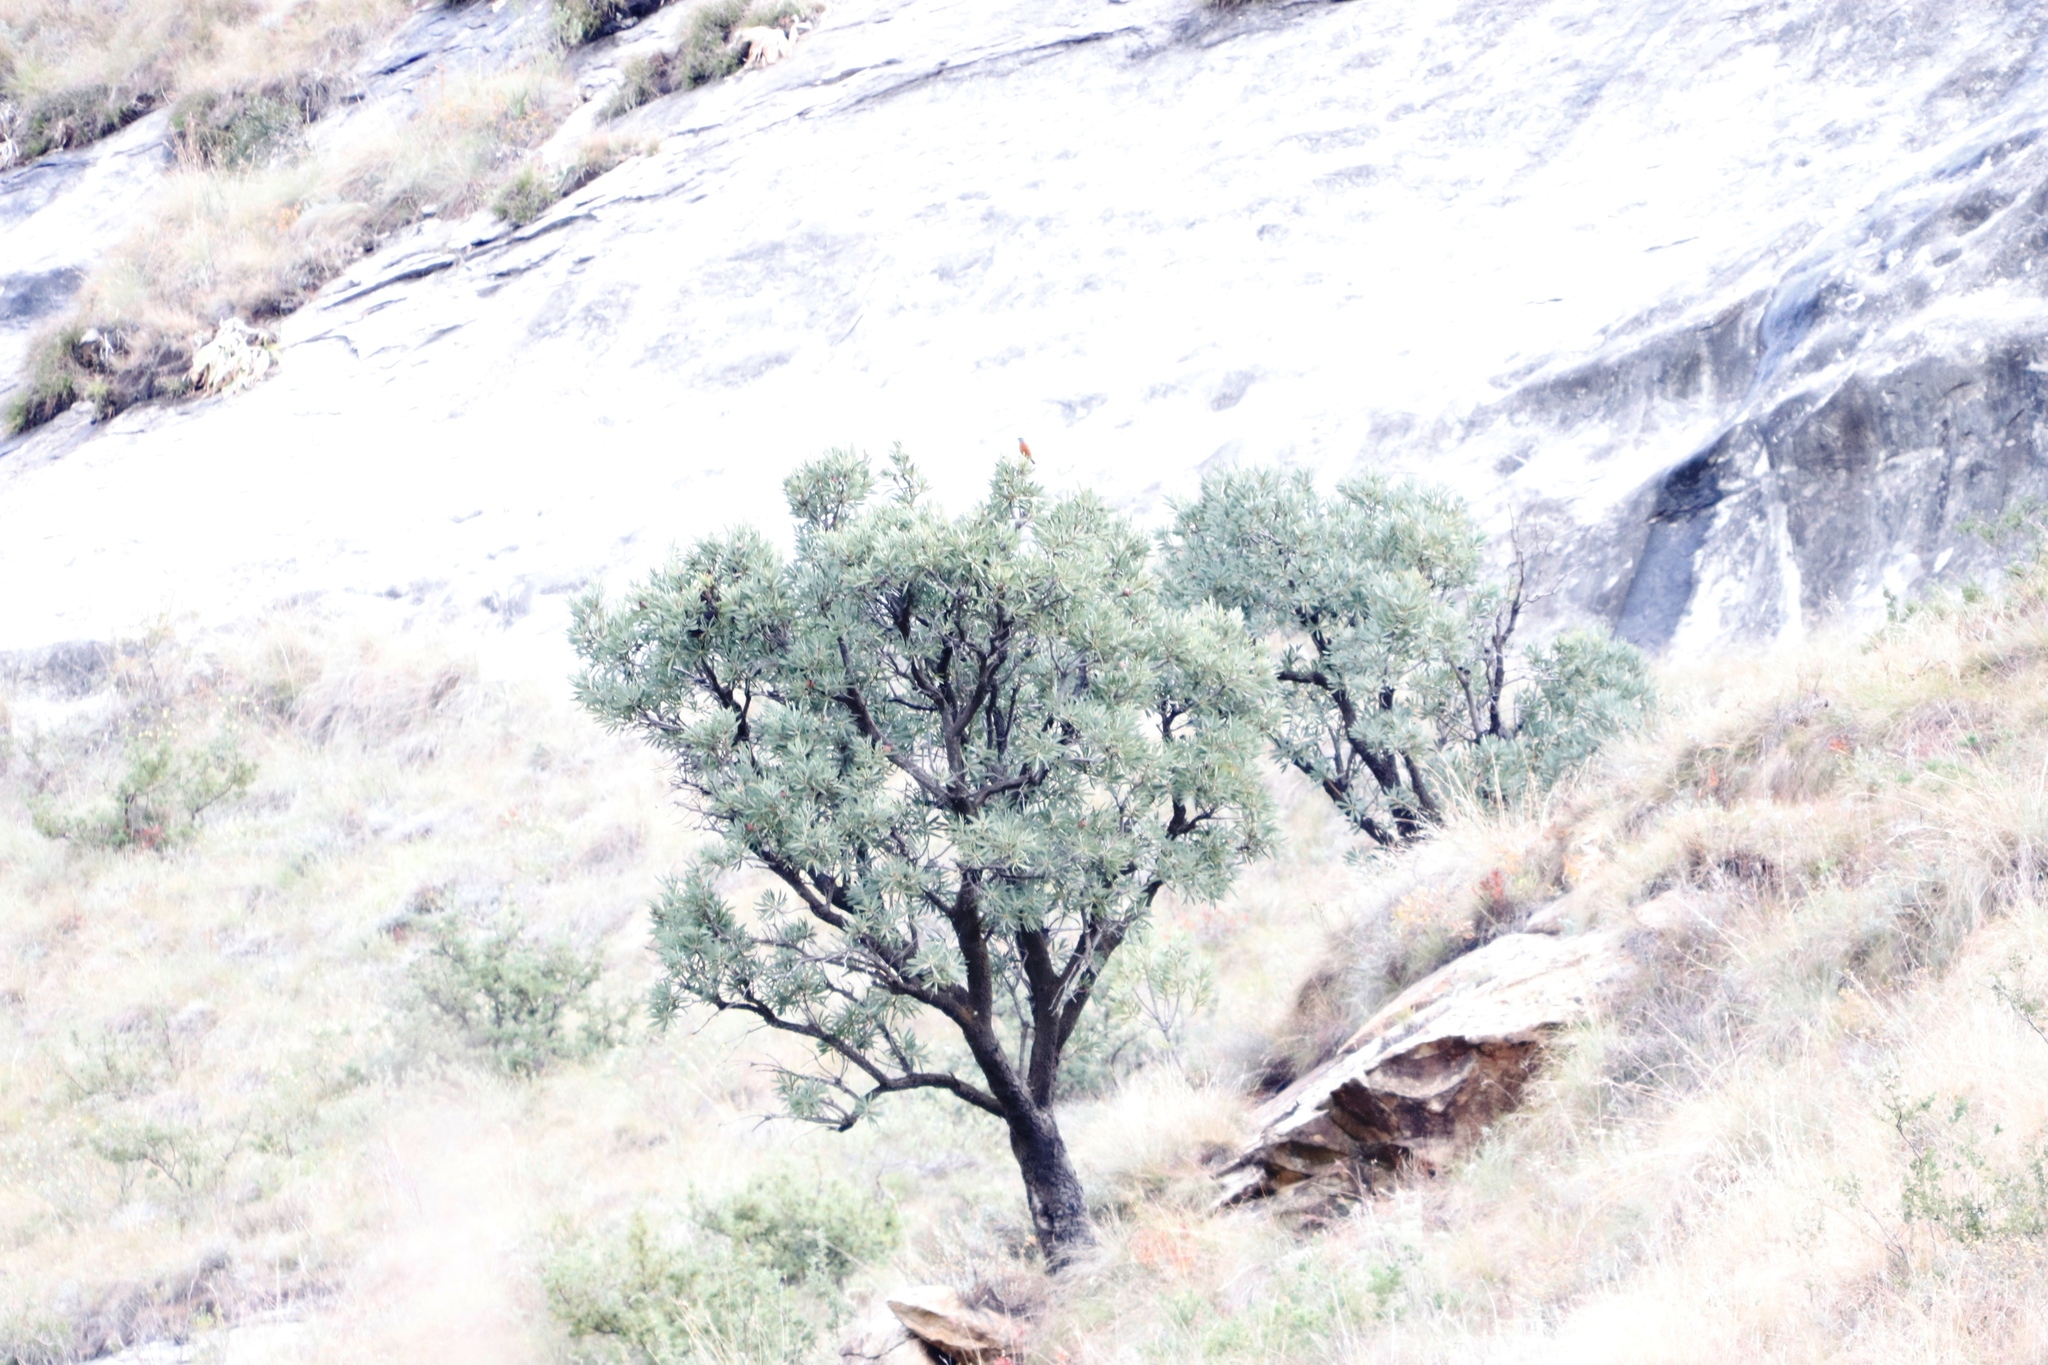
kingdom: Plantae
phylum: Tracheophyta
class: Magnoliopsida
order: Proteales
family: Proteaceae
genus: Protea
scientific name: Protea caffra
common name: Common sugarbush
